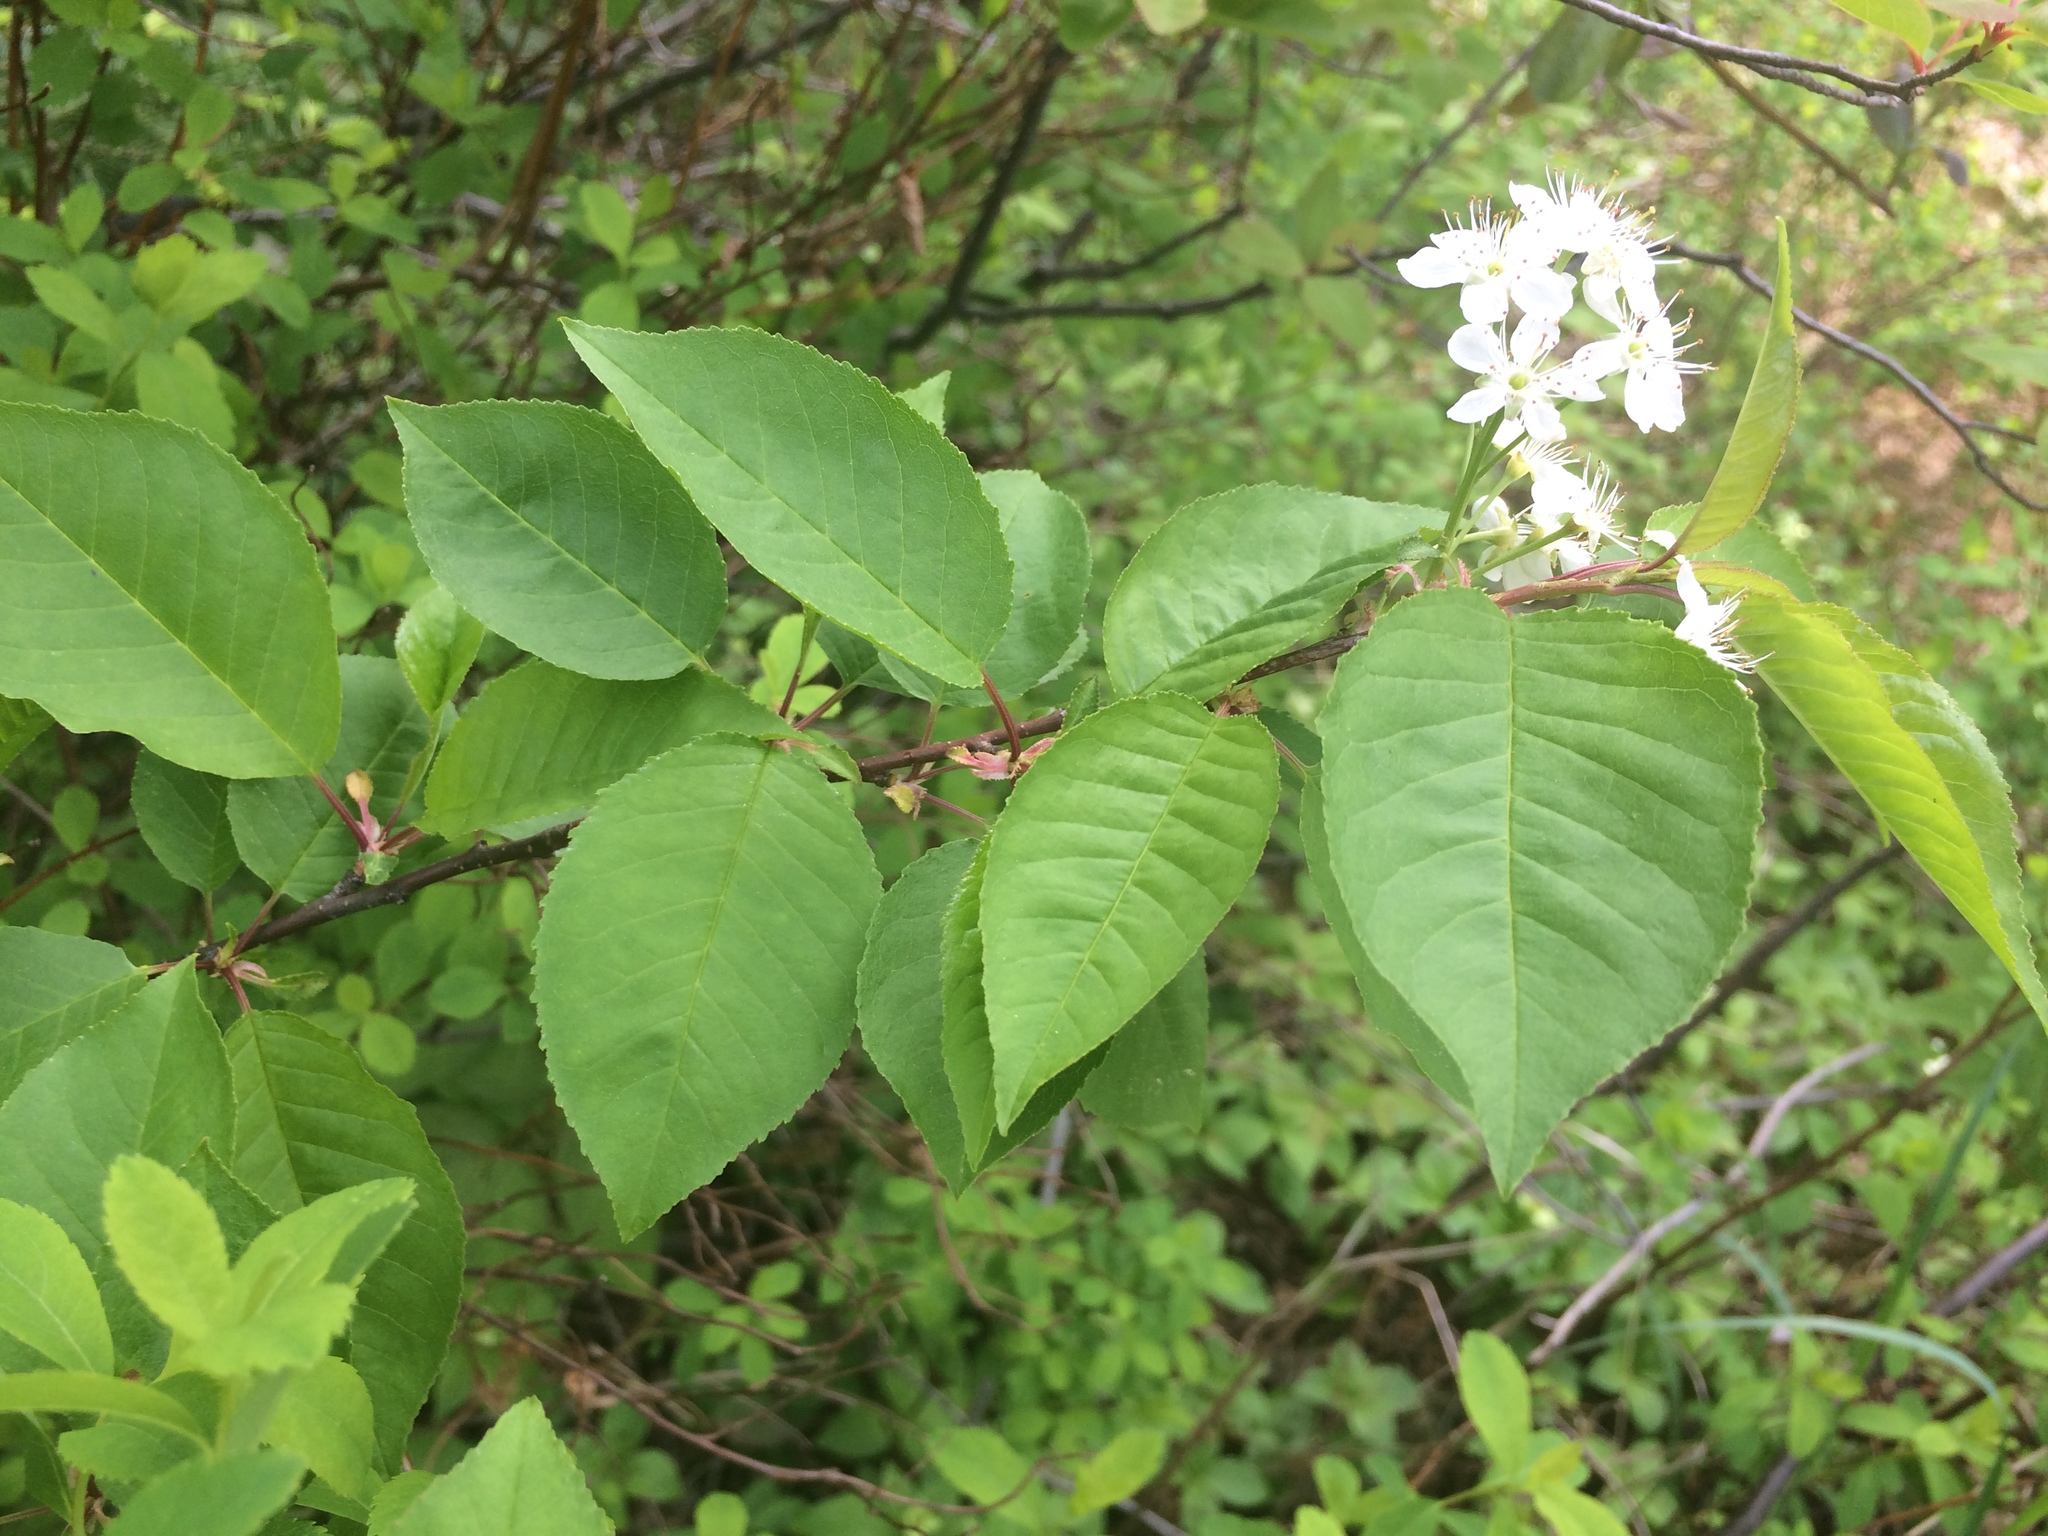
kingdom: Plantae
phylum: Tracheophyta
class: Magnoliopsida
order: Rosales
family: Rosaceae
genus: Prunus
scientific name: Prunus pensylvanica
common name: Pin cherry
